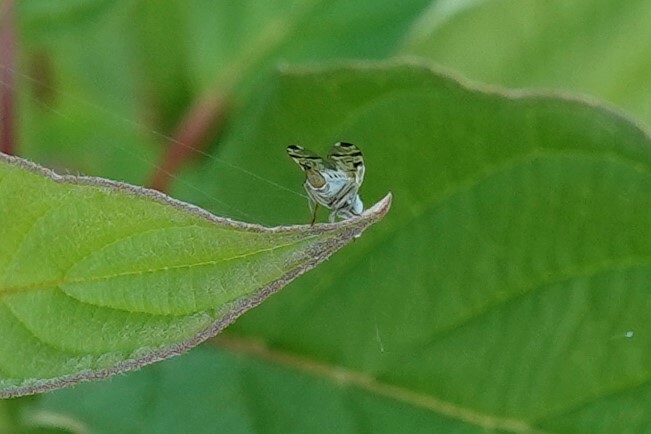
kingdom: Animalia
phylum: Arthropoda
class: Insecta
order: Diptera
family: Tephritidae
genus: Terellia
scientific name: Terellia ruficauda
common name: Root-maggot fly
